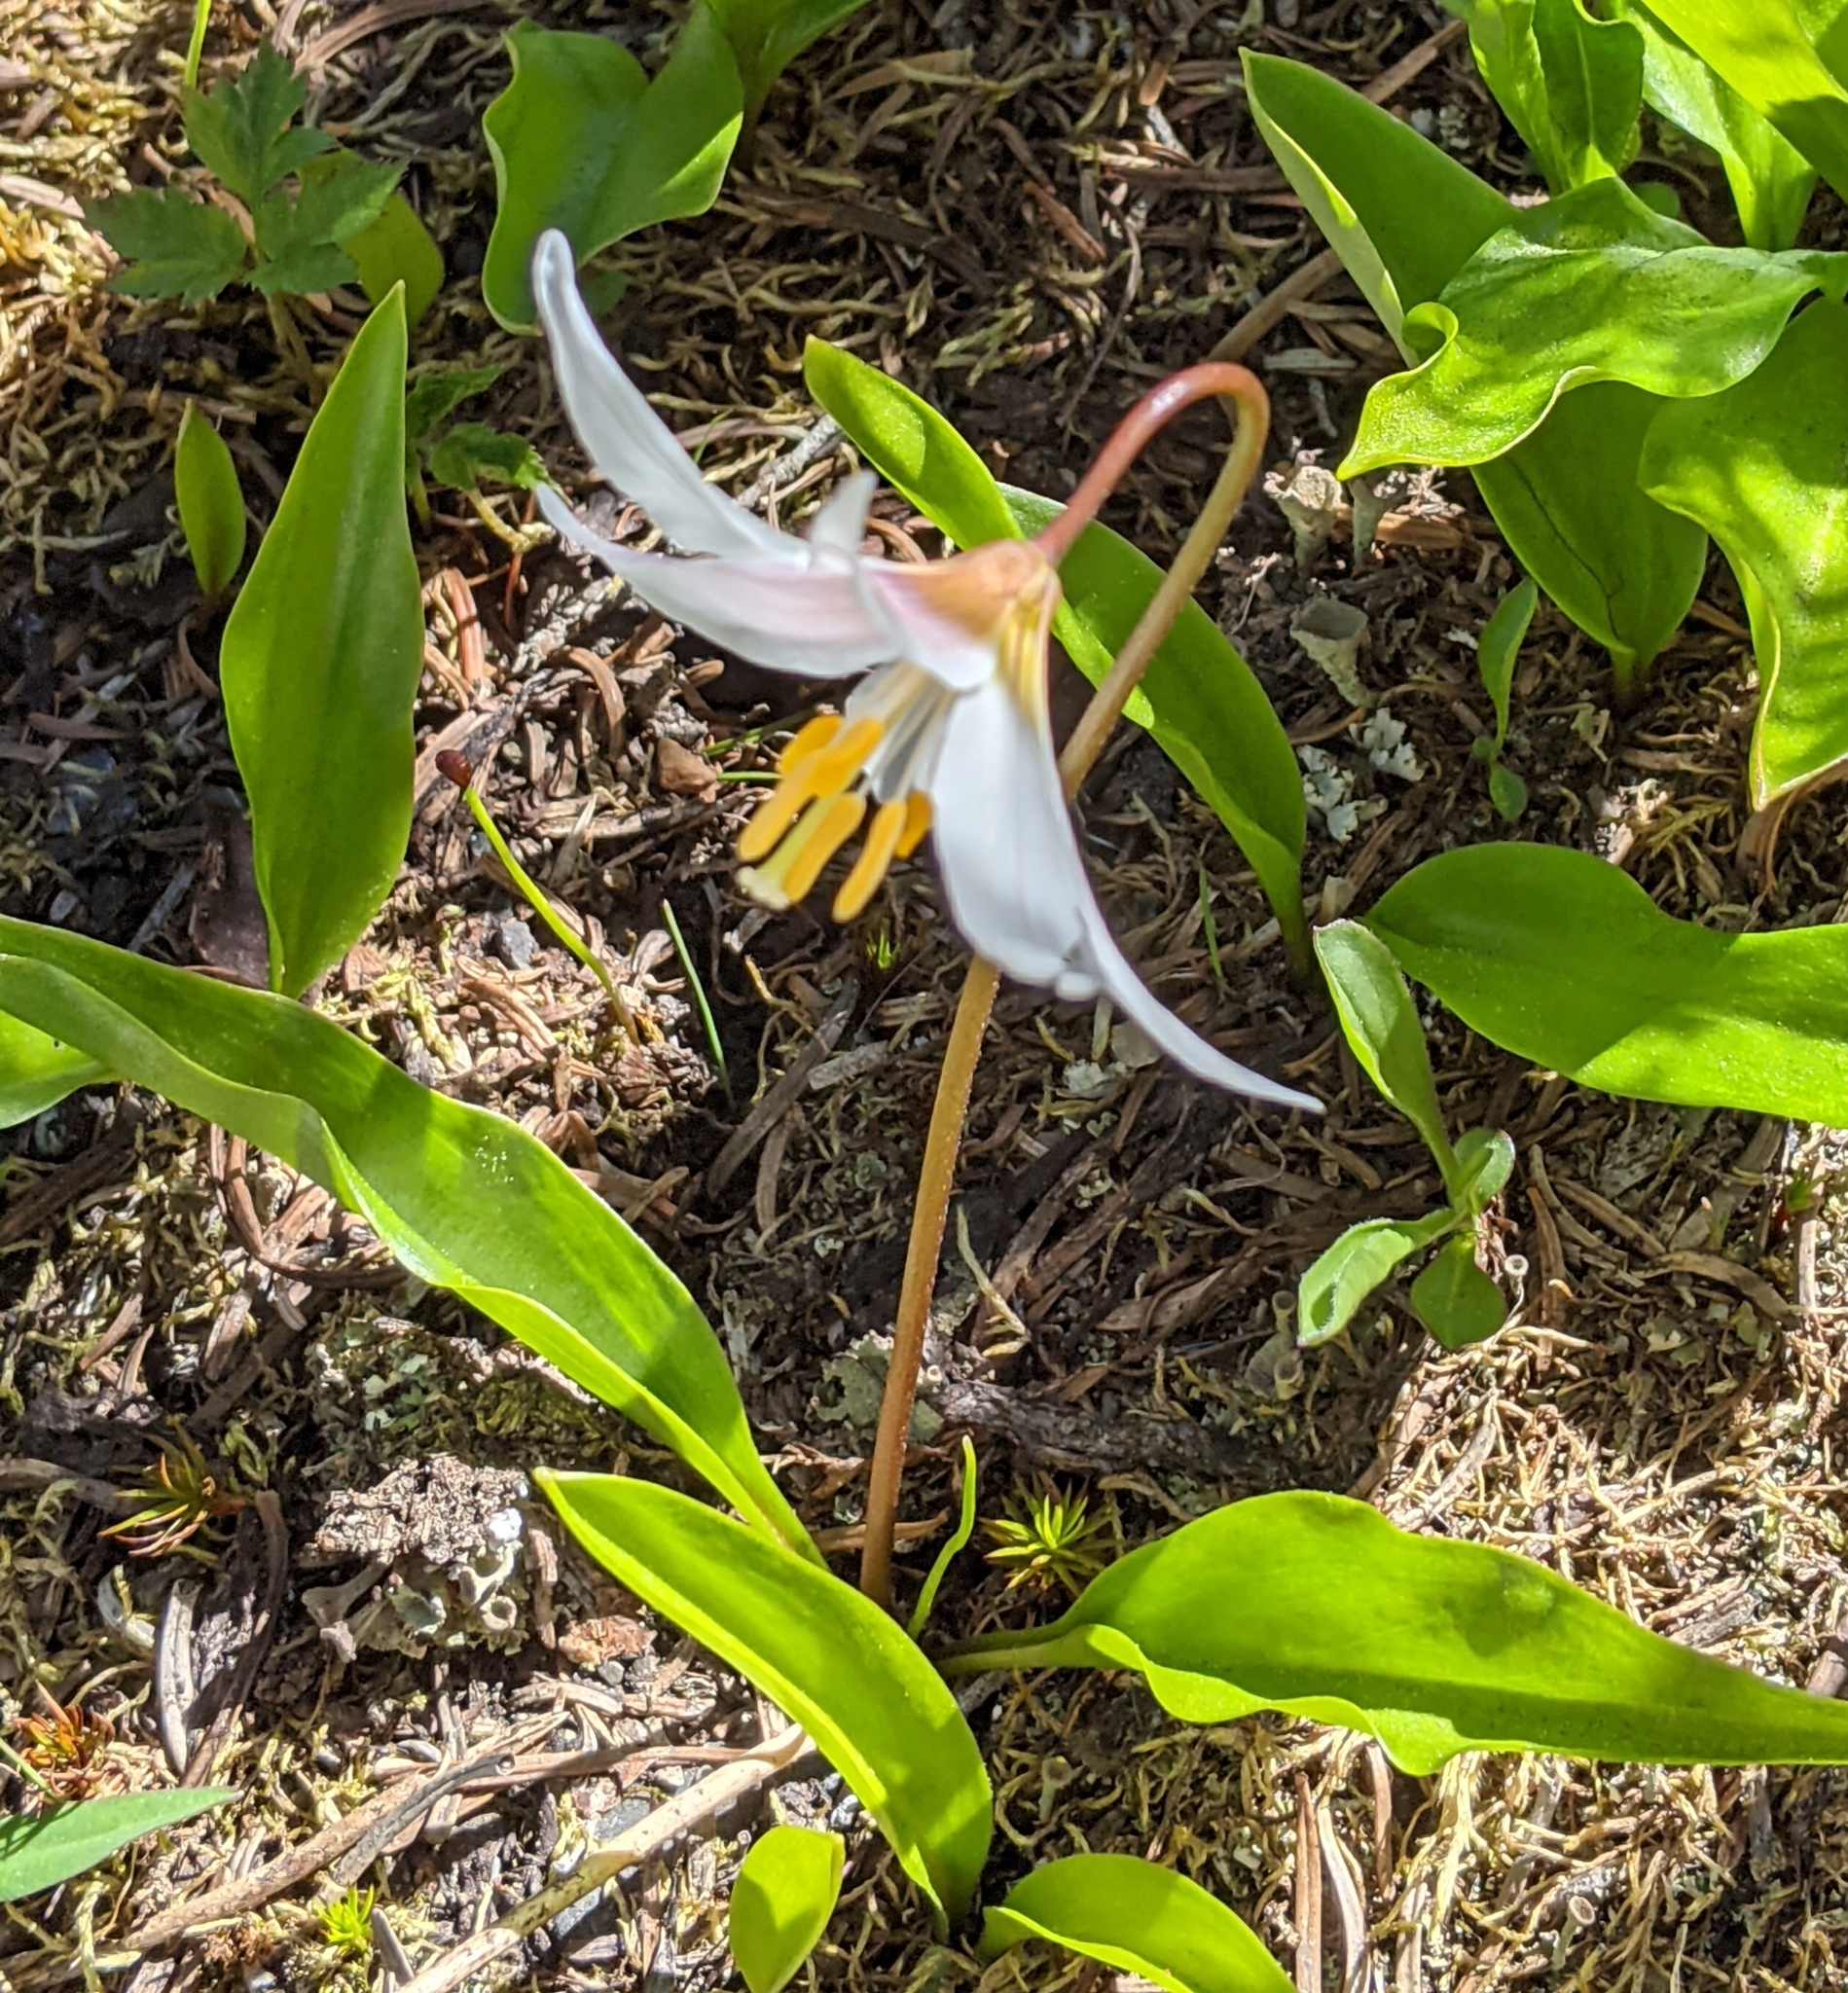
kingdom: Plantae
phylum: Tracheophyta
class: Liliopsida
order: Liliales
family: Liliaceae
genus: Erythronium
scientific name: Erythronium montanum
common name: Avalanche lily
